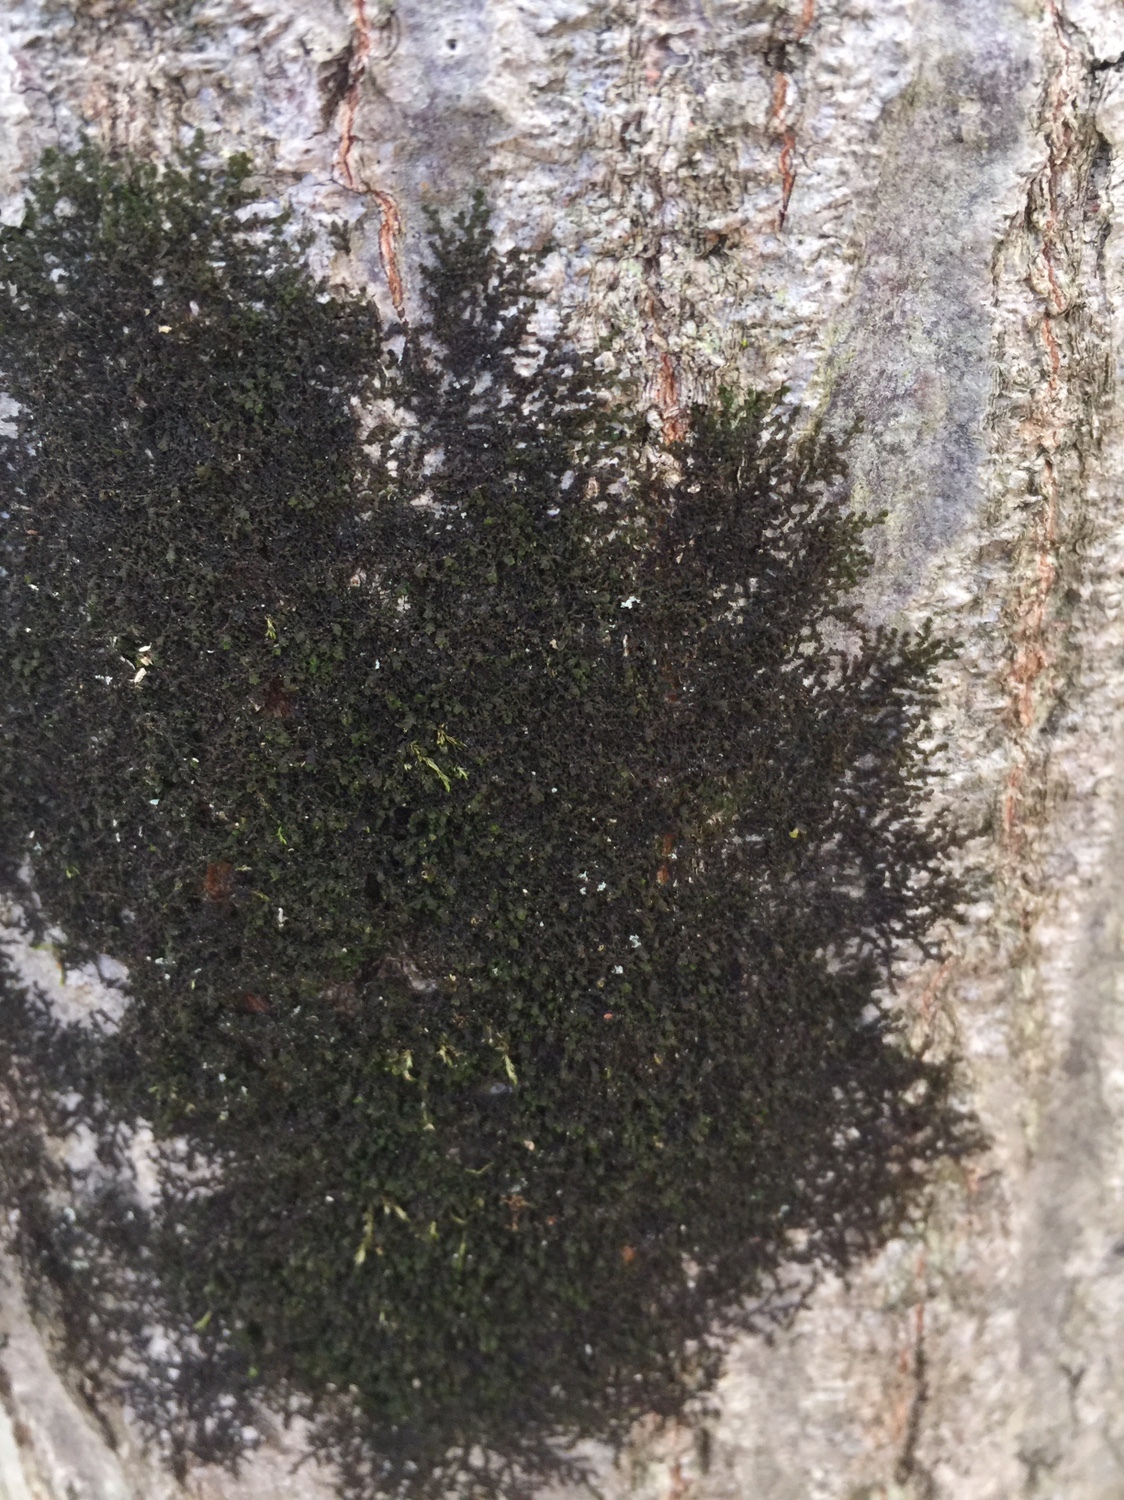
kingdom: Plantae
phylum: Marchantiophyta
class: Jungermanniopsida
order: Porellales
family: Frullaniaceae
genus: Frullania
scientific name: Frullania eboracensis
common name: New york scalewort
